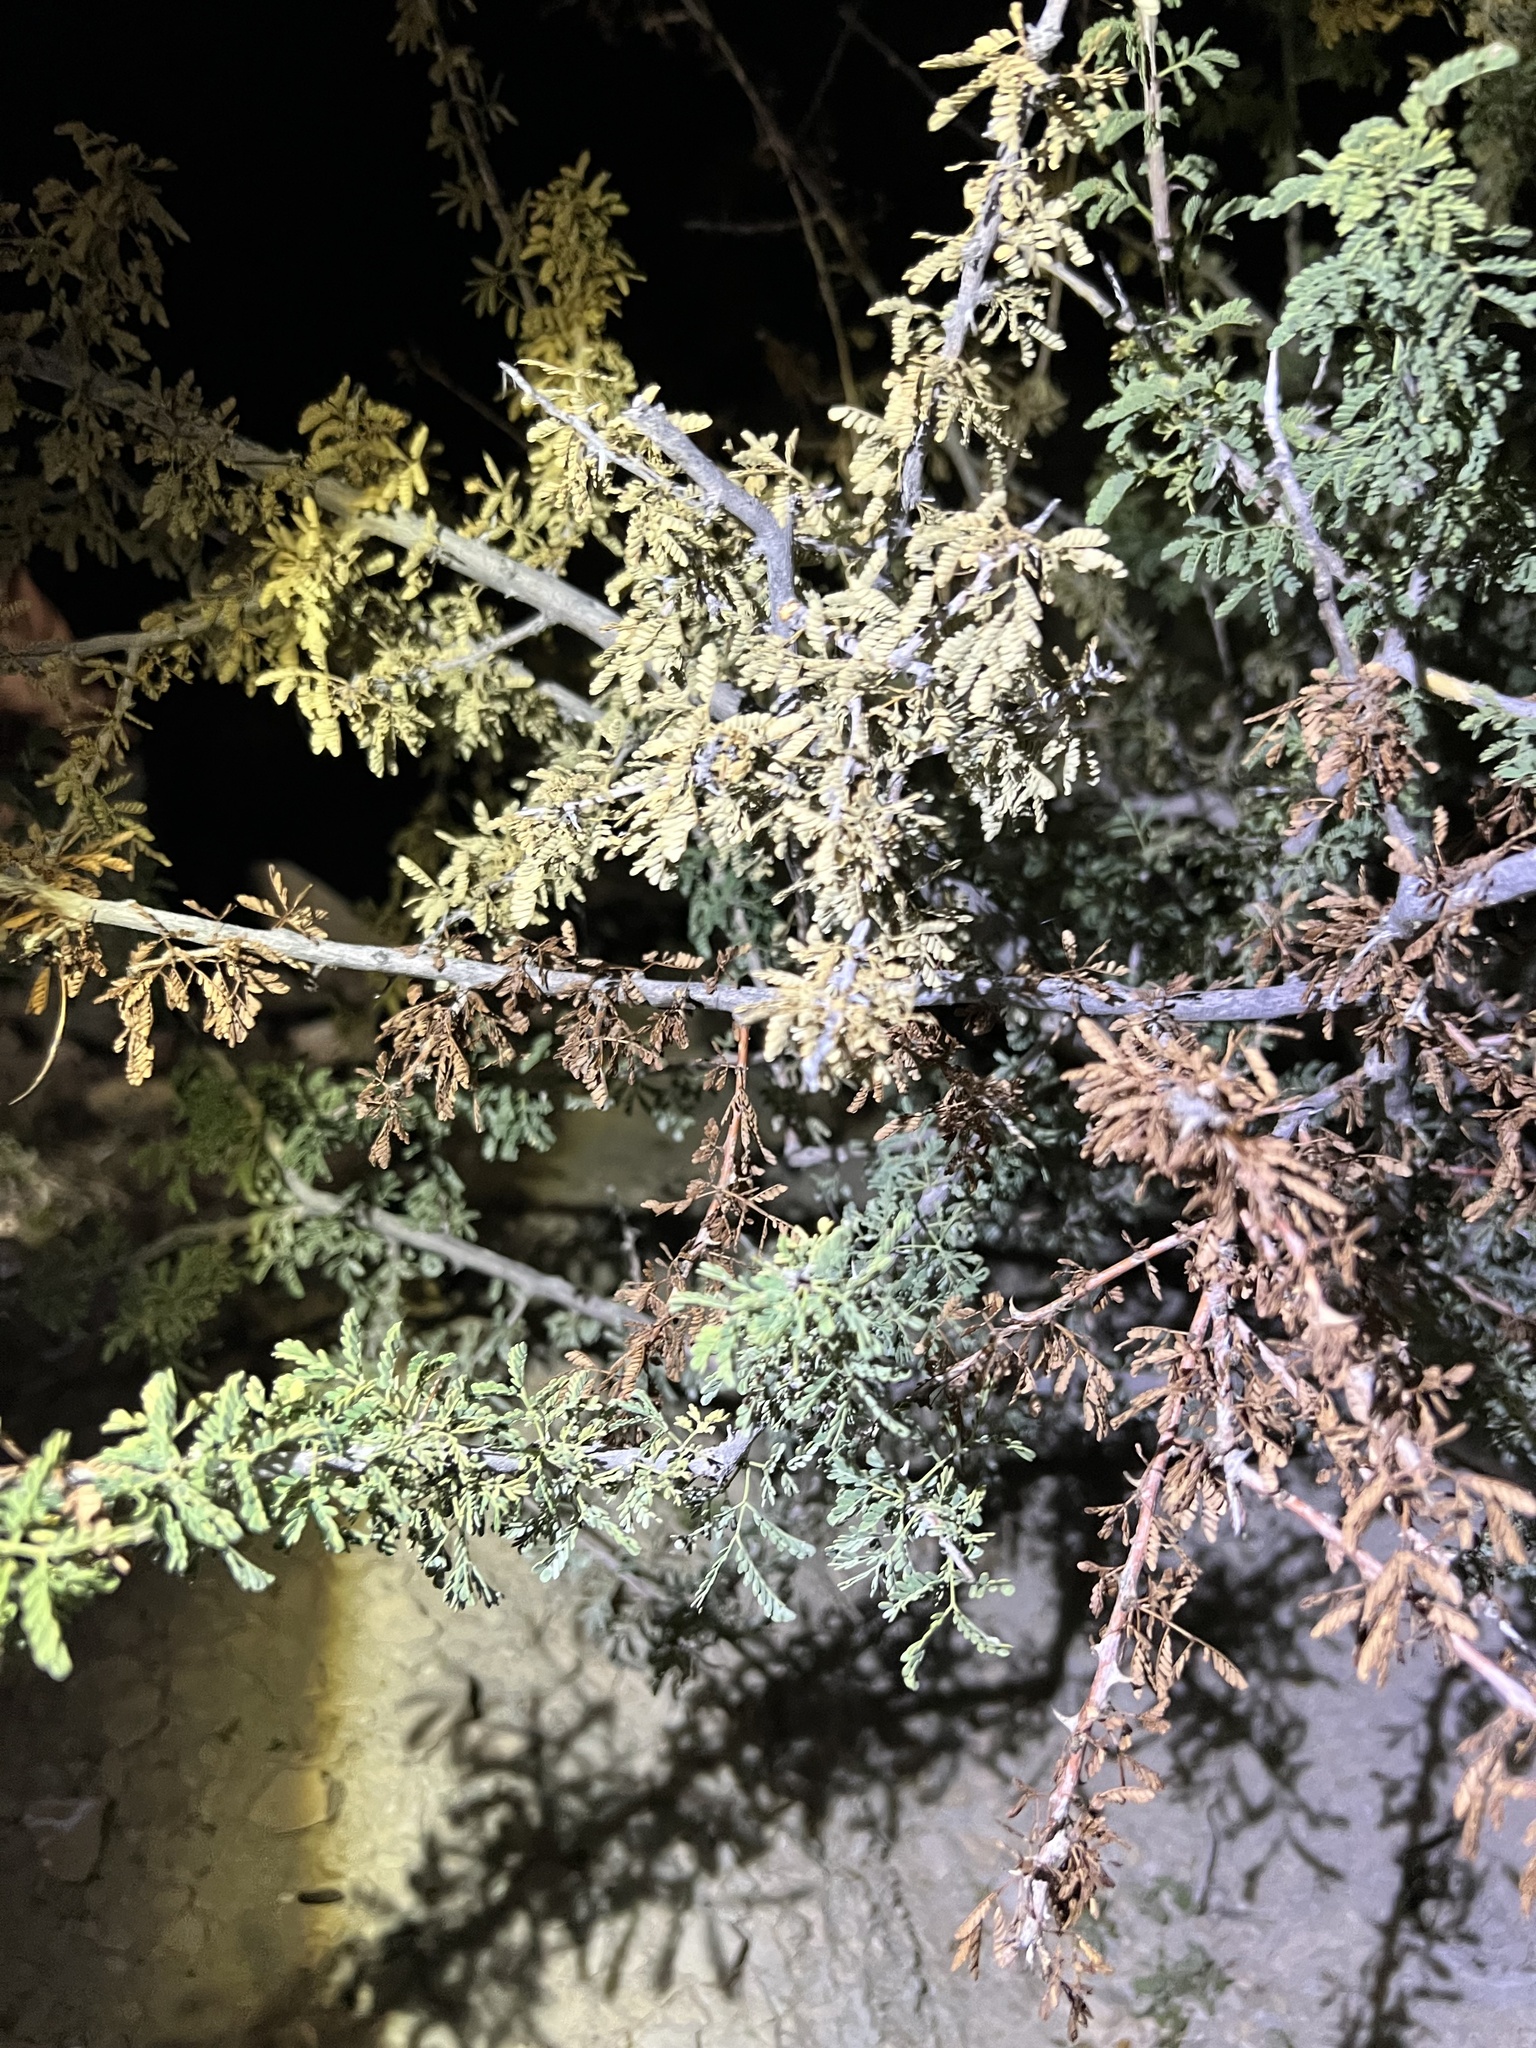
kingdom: Plantae
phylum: Tracheophyta
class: Magnoliopsida
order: Fabales
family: Fabaceae
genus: Senegalia
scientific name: Senegalia greggii
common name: Texas-mimosa
